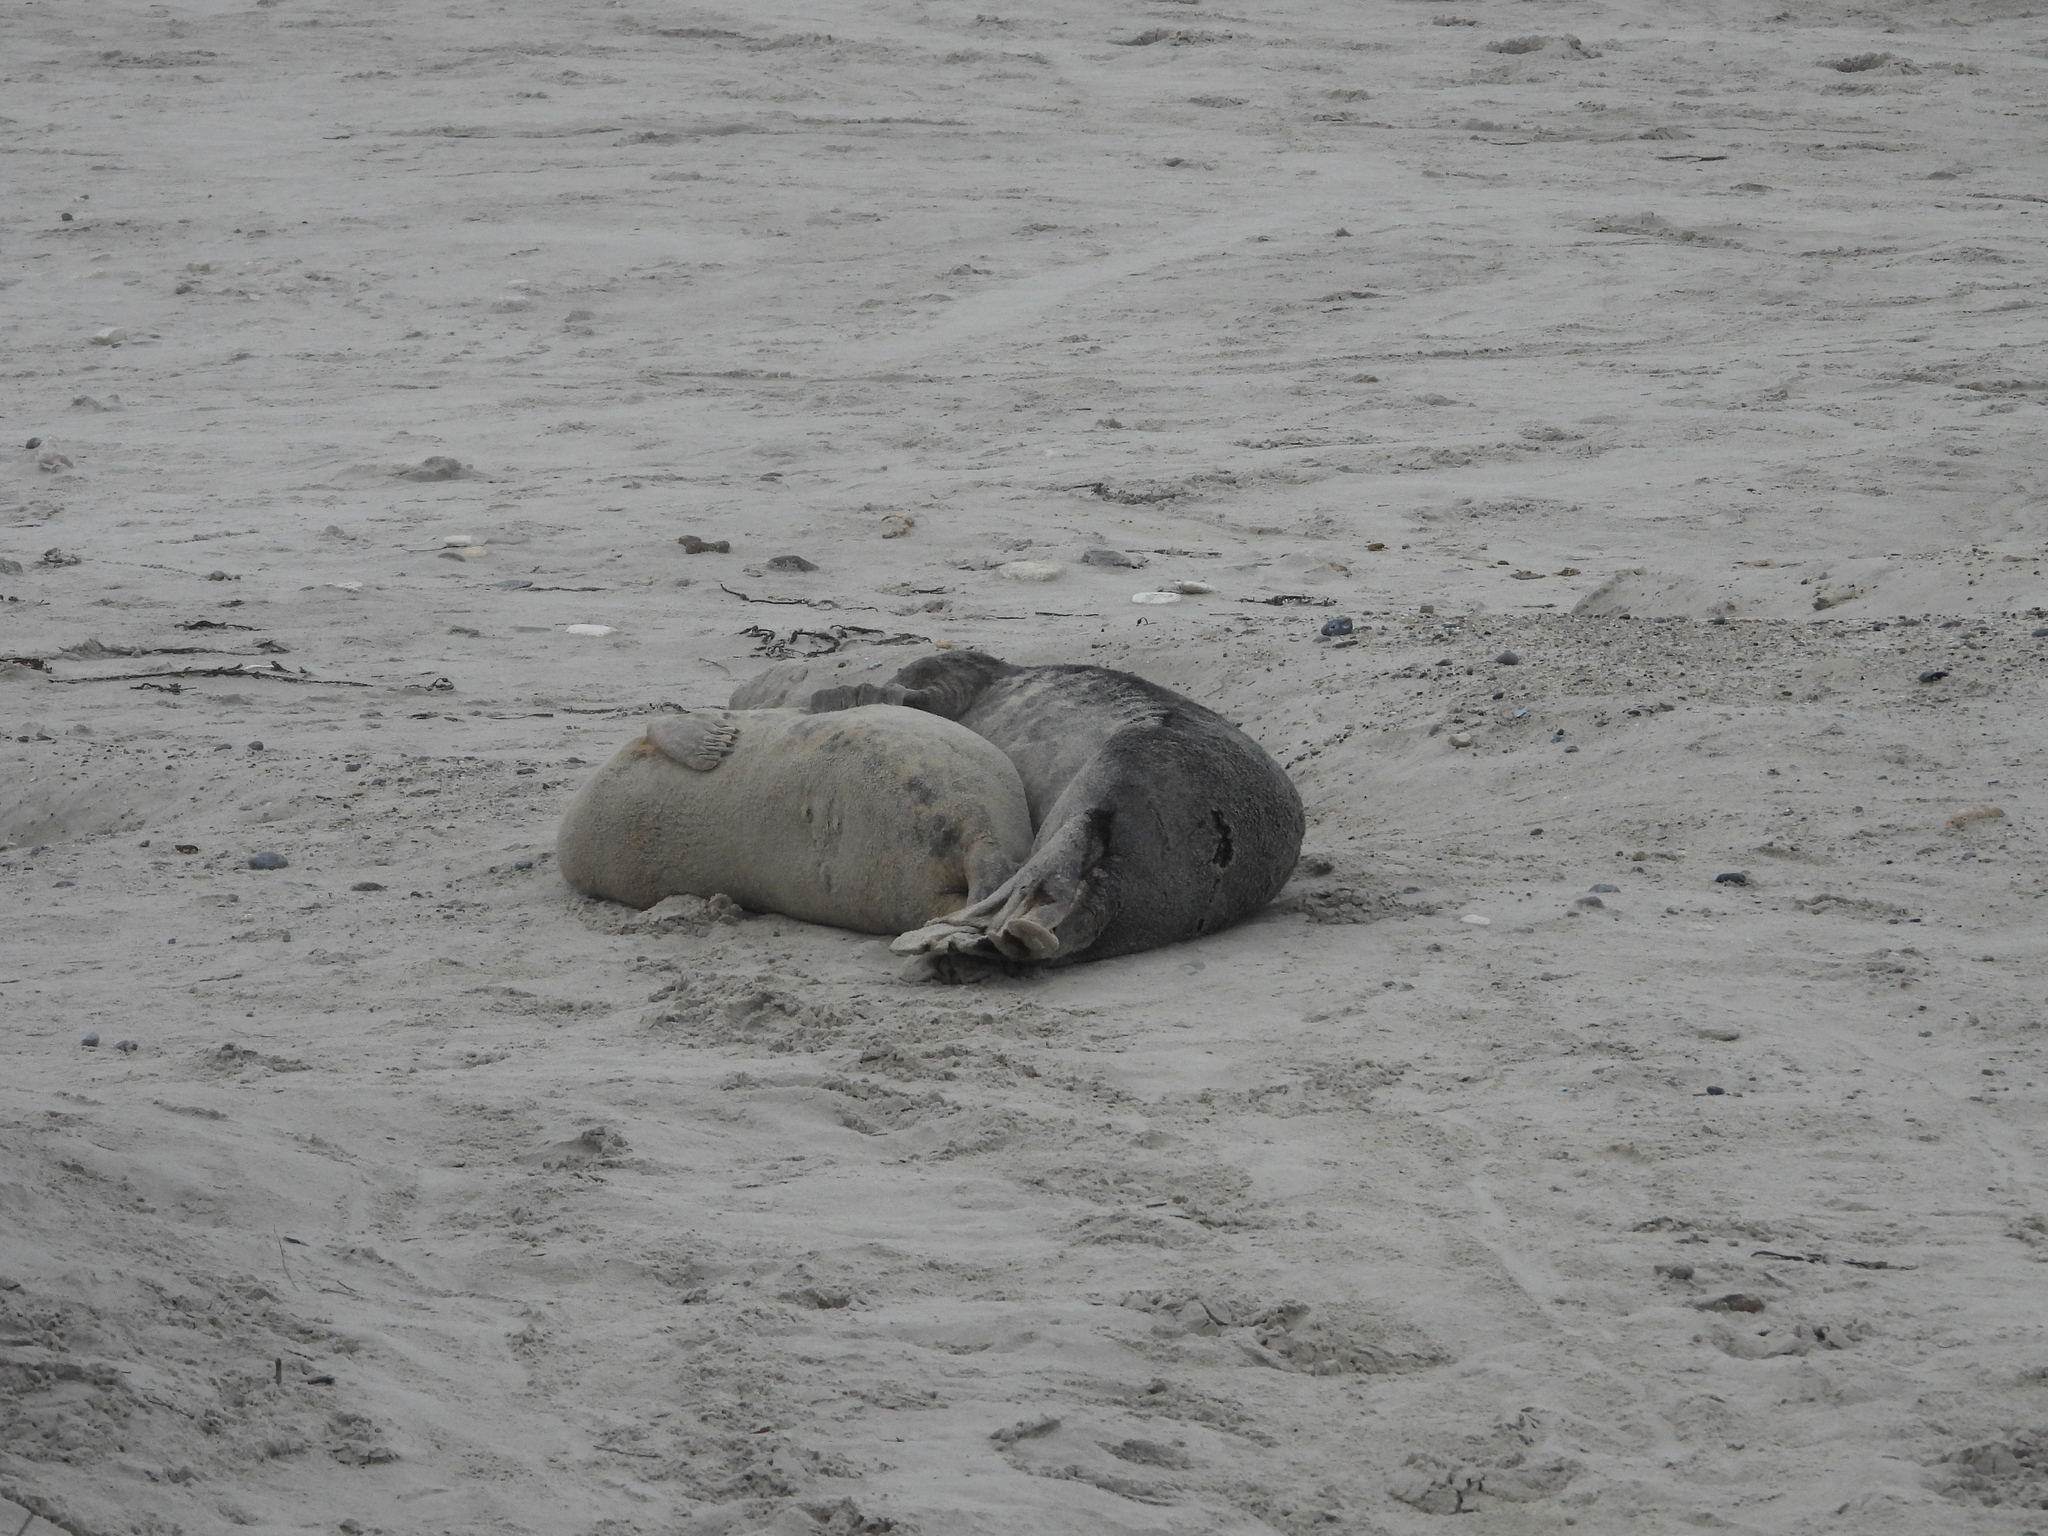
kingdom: Animalia
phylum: Chordata
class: Mammalia
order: Carnivora
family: Phocidae
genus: Halichoerus
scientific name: Halichoerus grypus
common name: Grey seal
